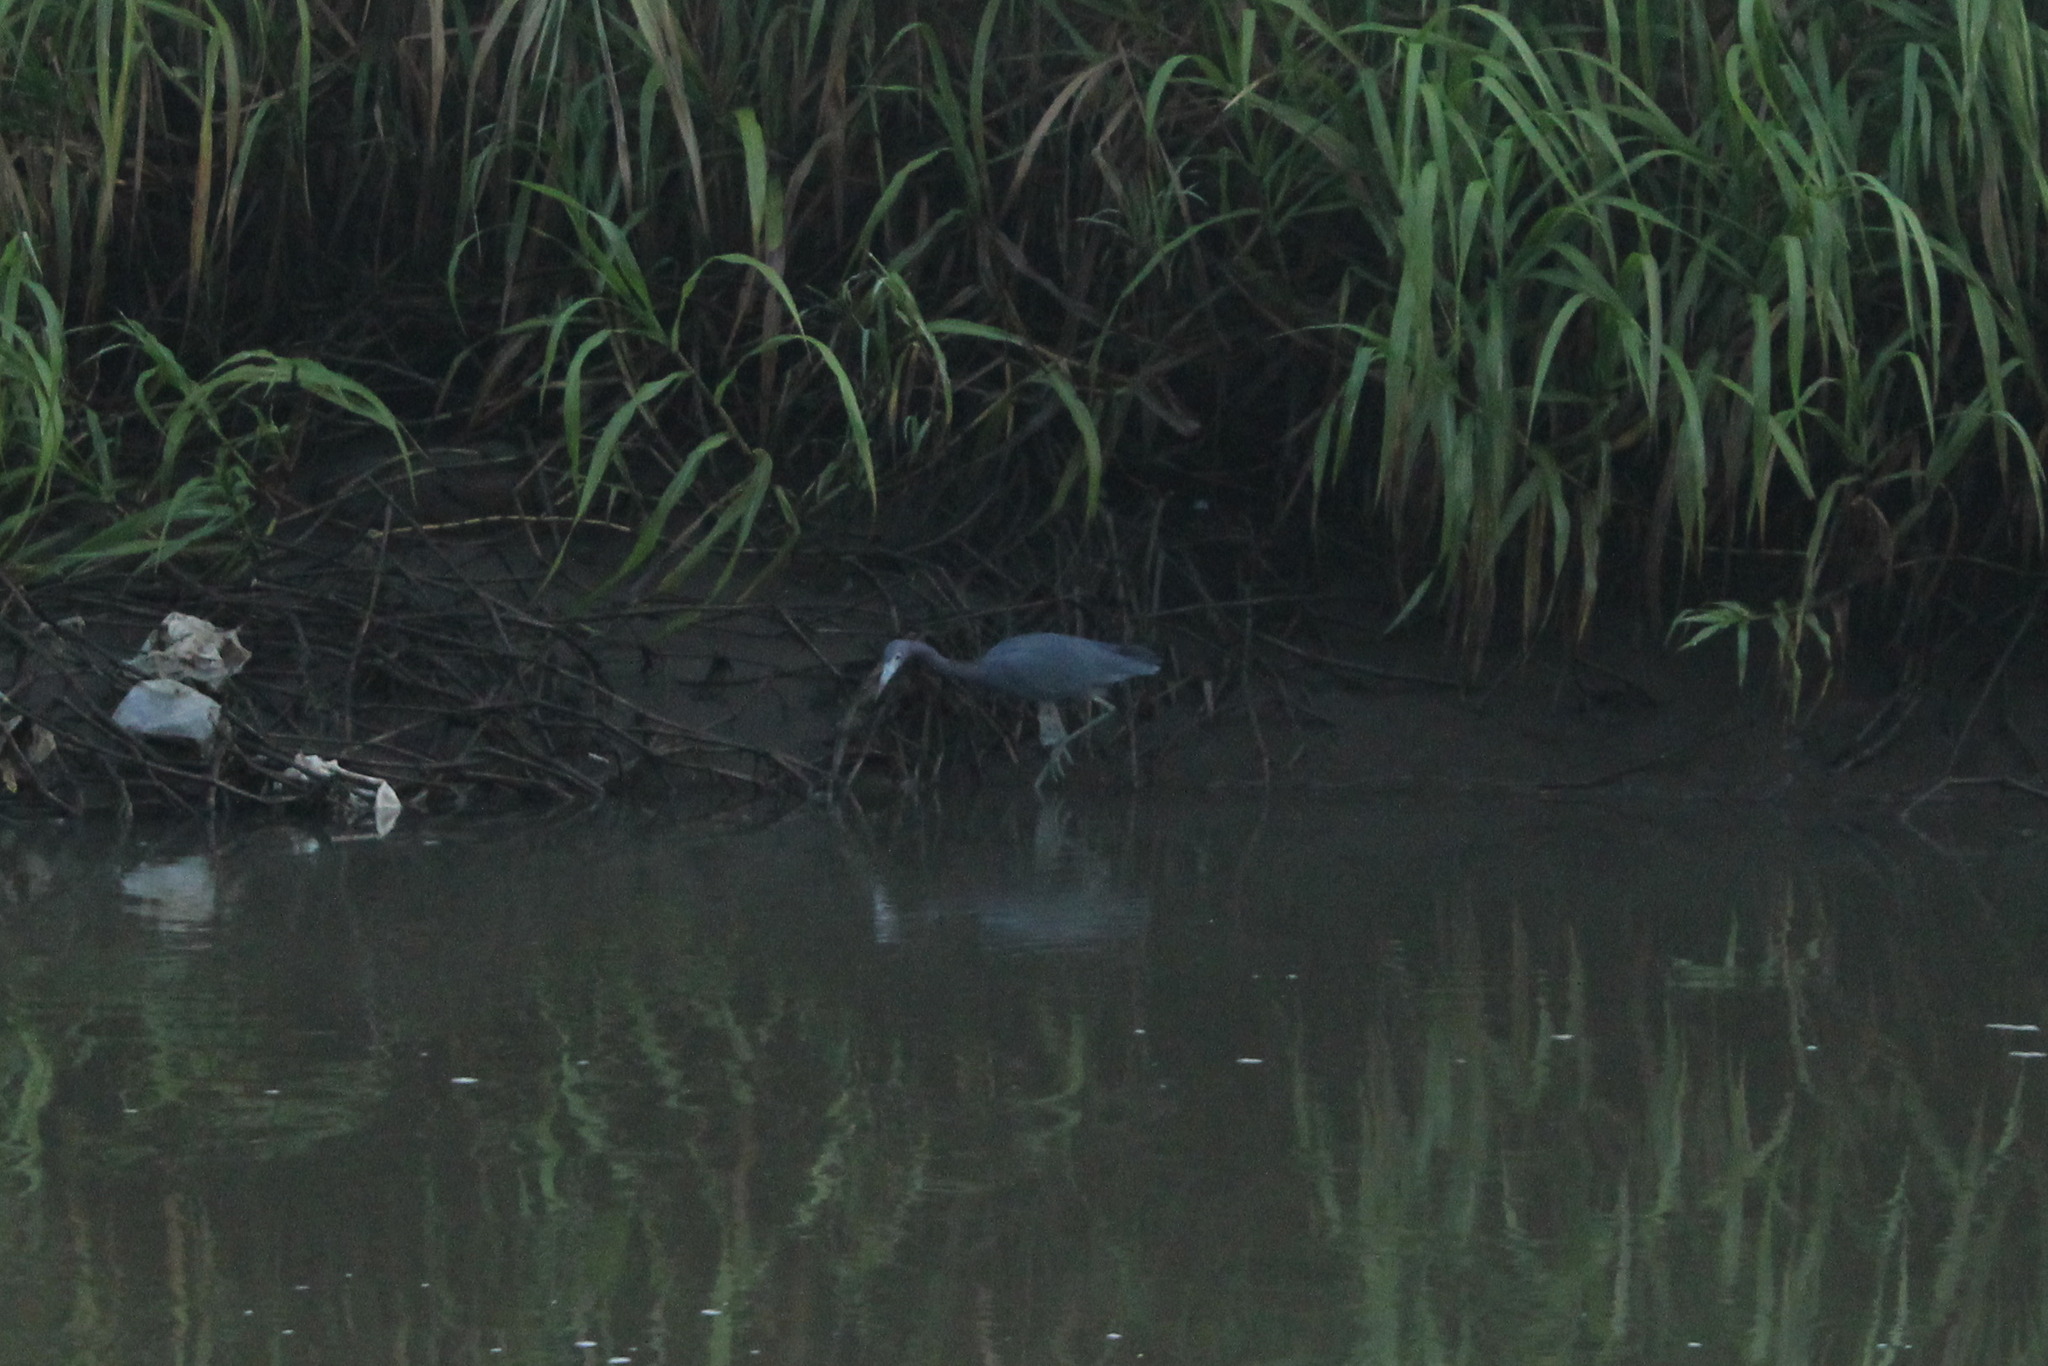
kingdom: Animalia
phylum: Chordata
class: Aves
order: Pelecaniformes
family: Ardeidae
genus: Egretta
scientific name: Egretta caerulea
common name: Little blue heron
